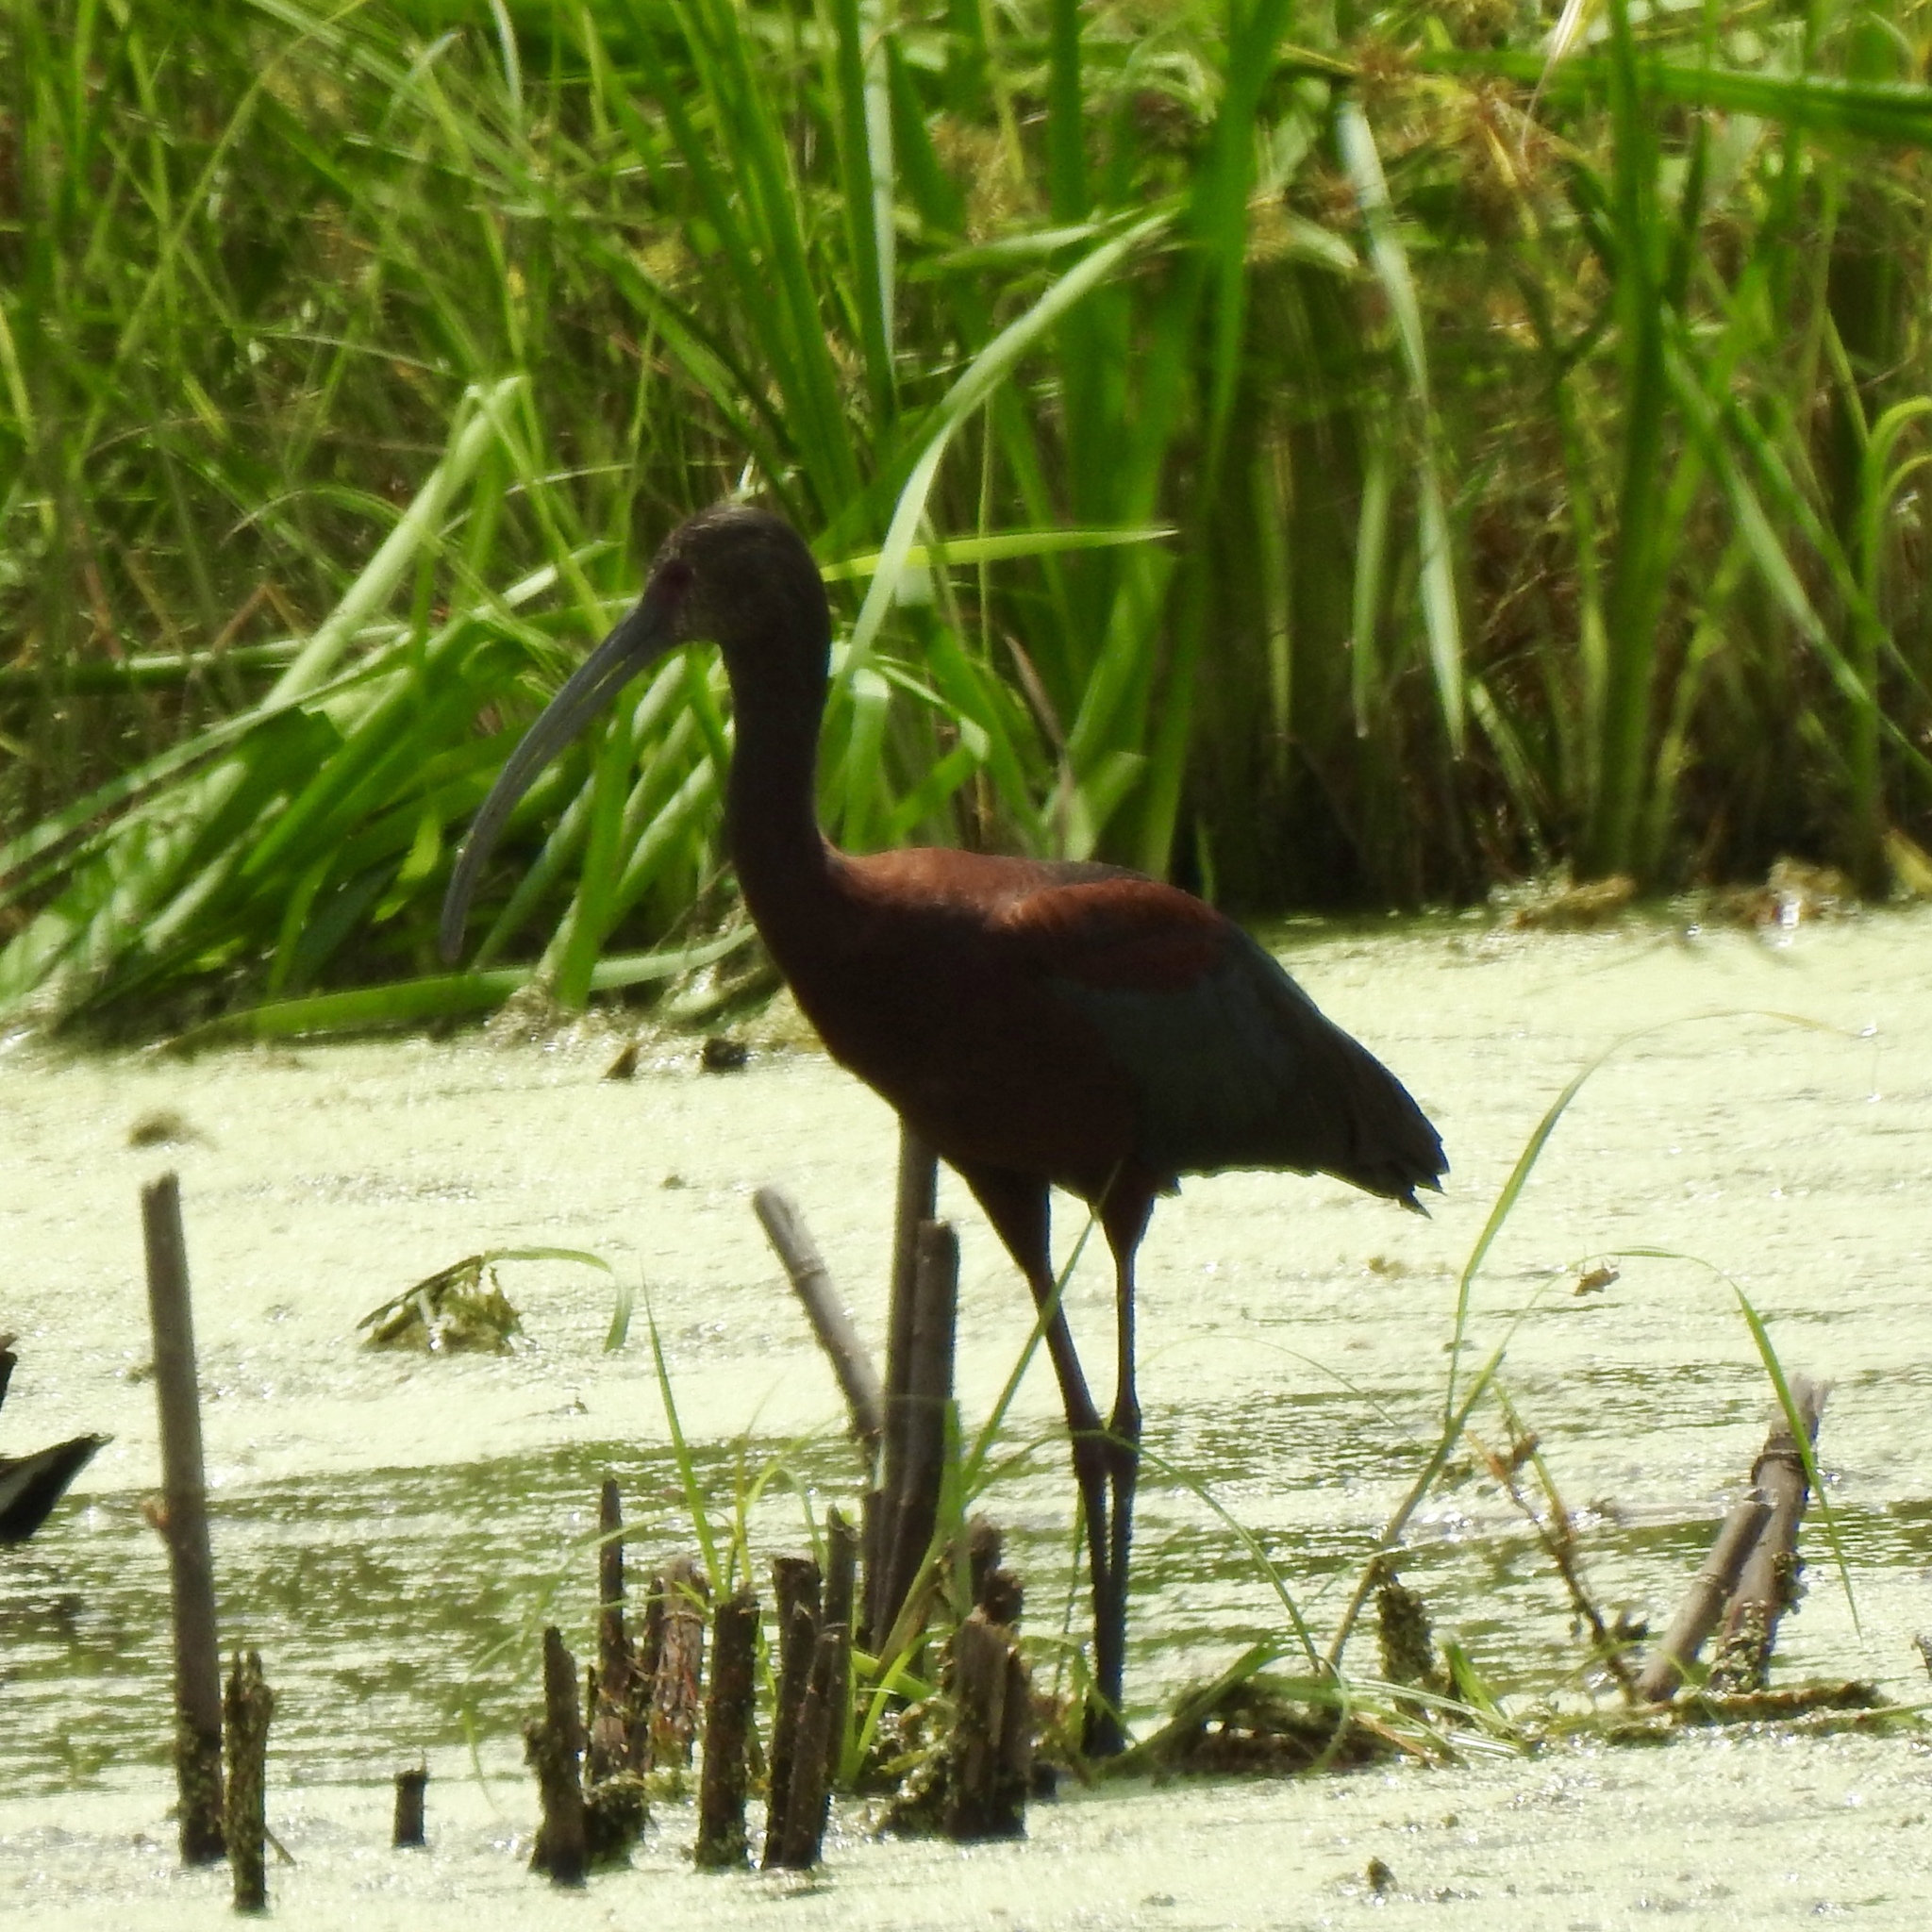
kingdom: Animalia
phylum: Chordata
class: Aves
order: Pelecaniformes
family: Threskiornithidae
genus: Plegadis
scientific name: Plegadis chihi
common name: White-faced ibis
